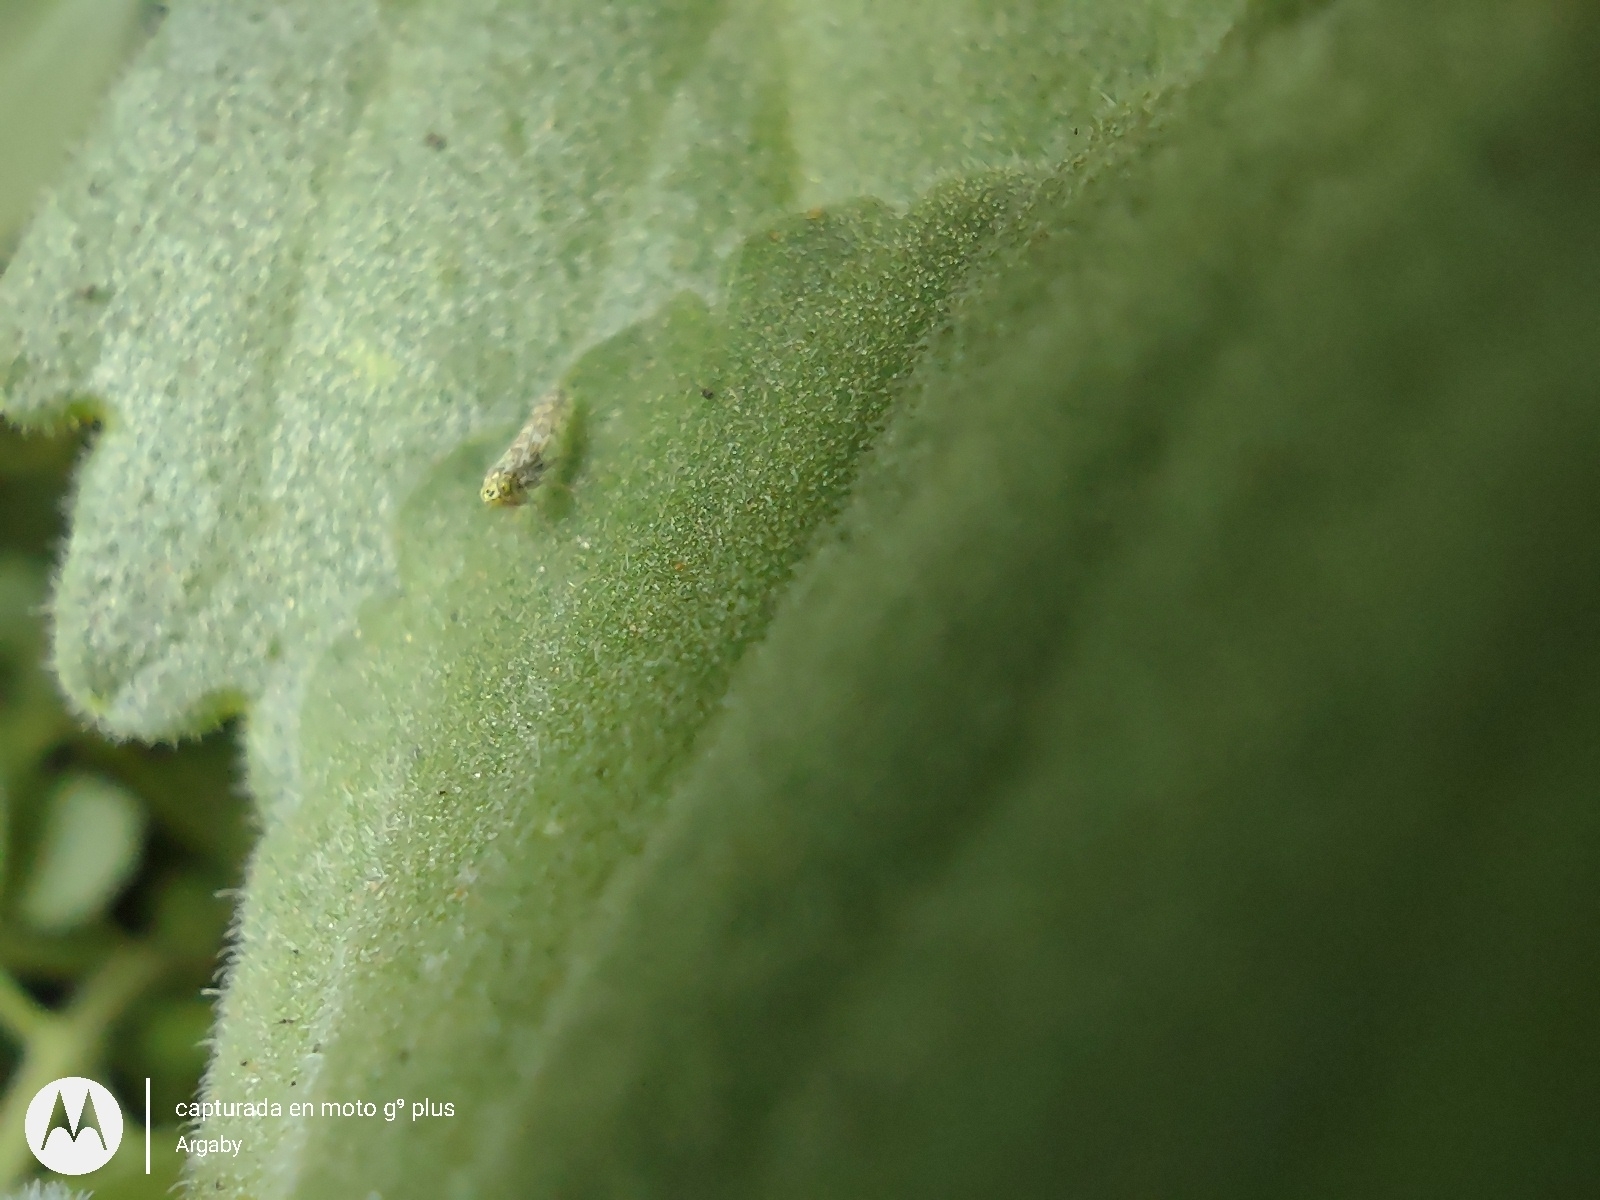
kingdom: Animalia
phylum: Arthropoda
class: Insecta
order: Hemiptera
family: Cicadellidae
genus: Eupteryx
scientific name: Eupteryx decemnotata
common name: Ligurian leafhopper
